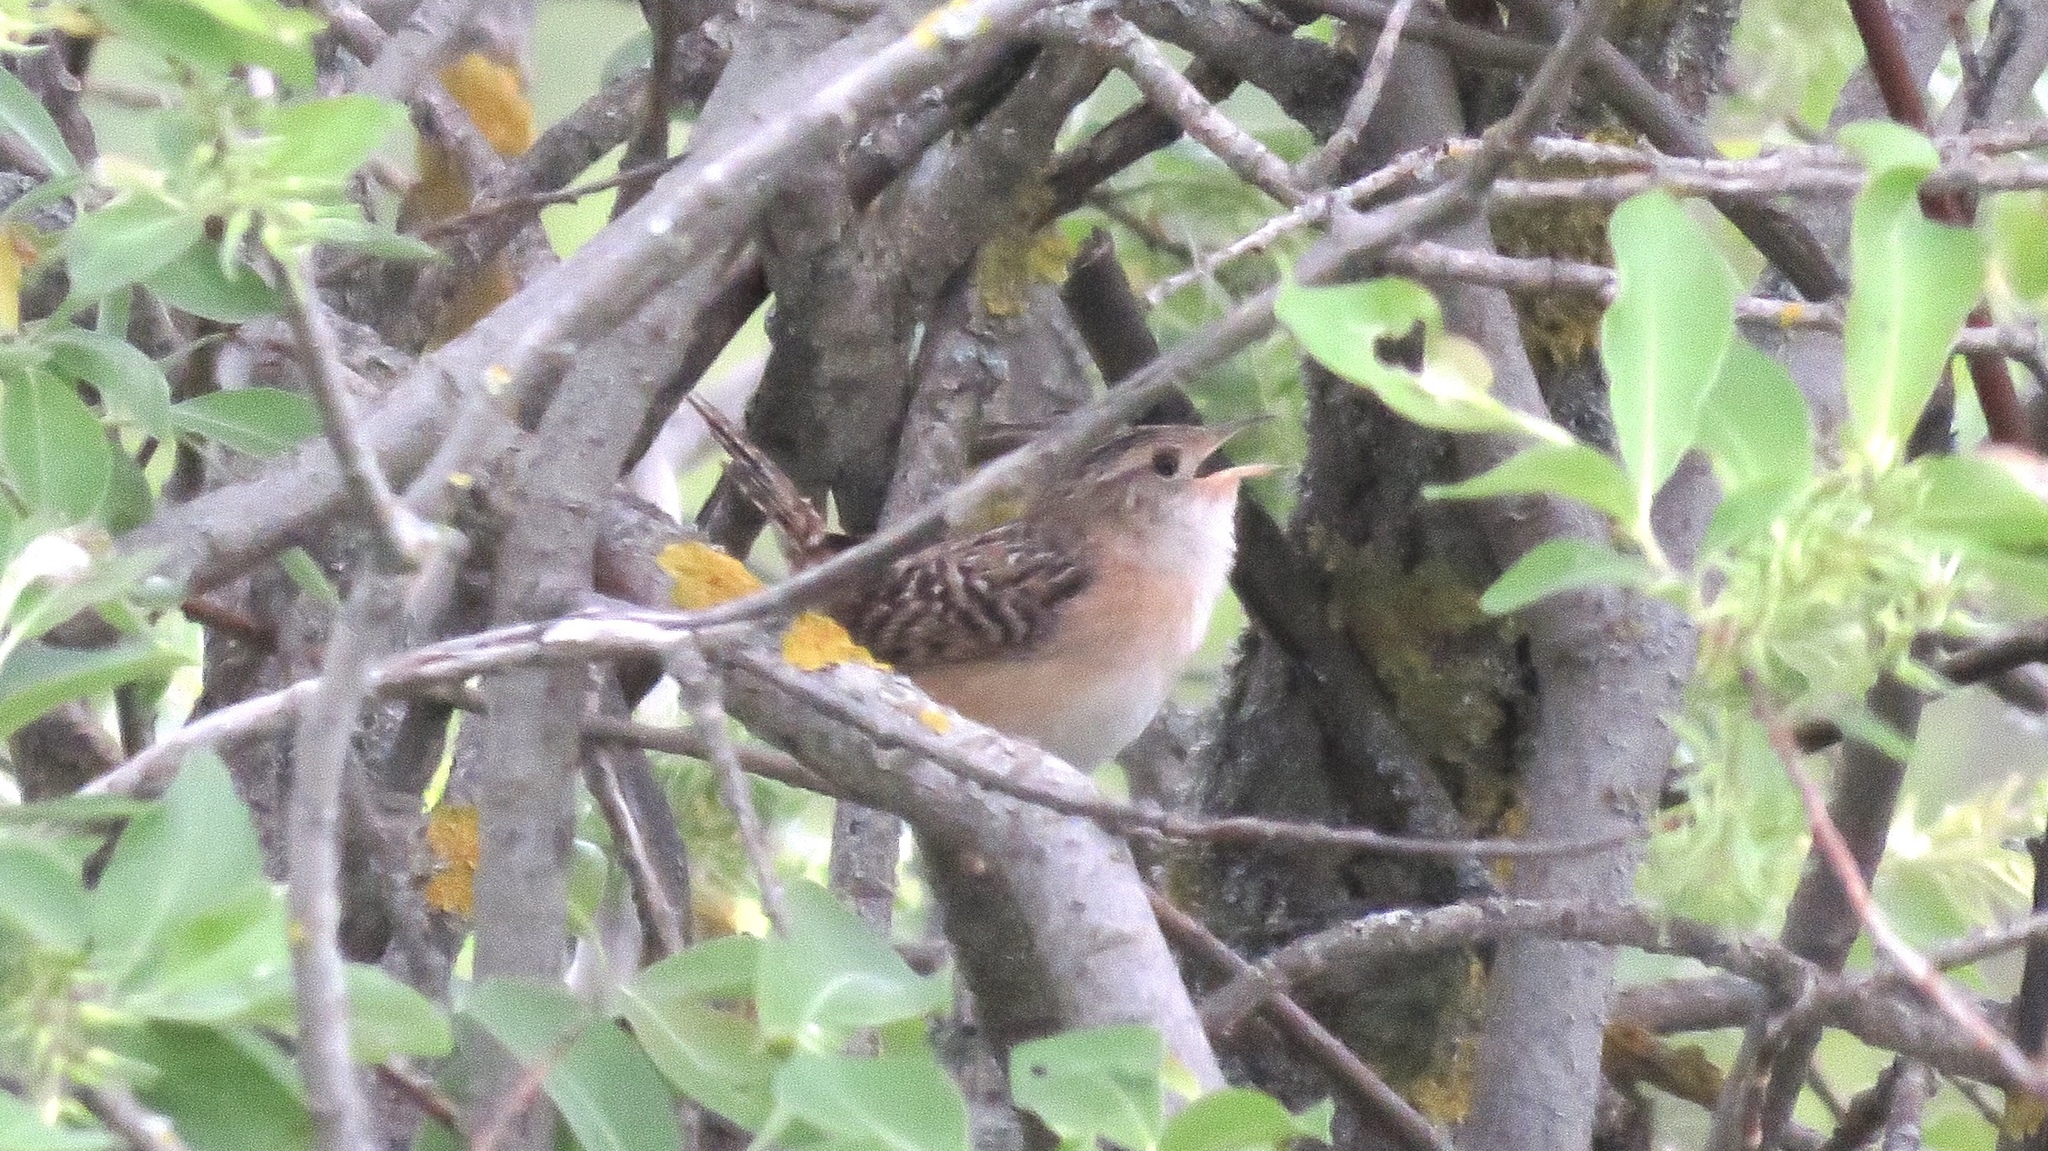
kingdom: Animalia
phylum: Chordata
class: Aves
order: Passeriformes
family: Troglodytidae
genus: Cistothorus
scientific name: Cistothorus platensis
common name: Sedge wren
